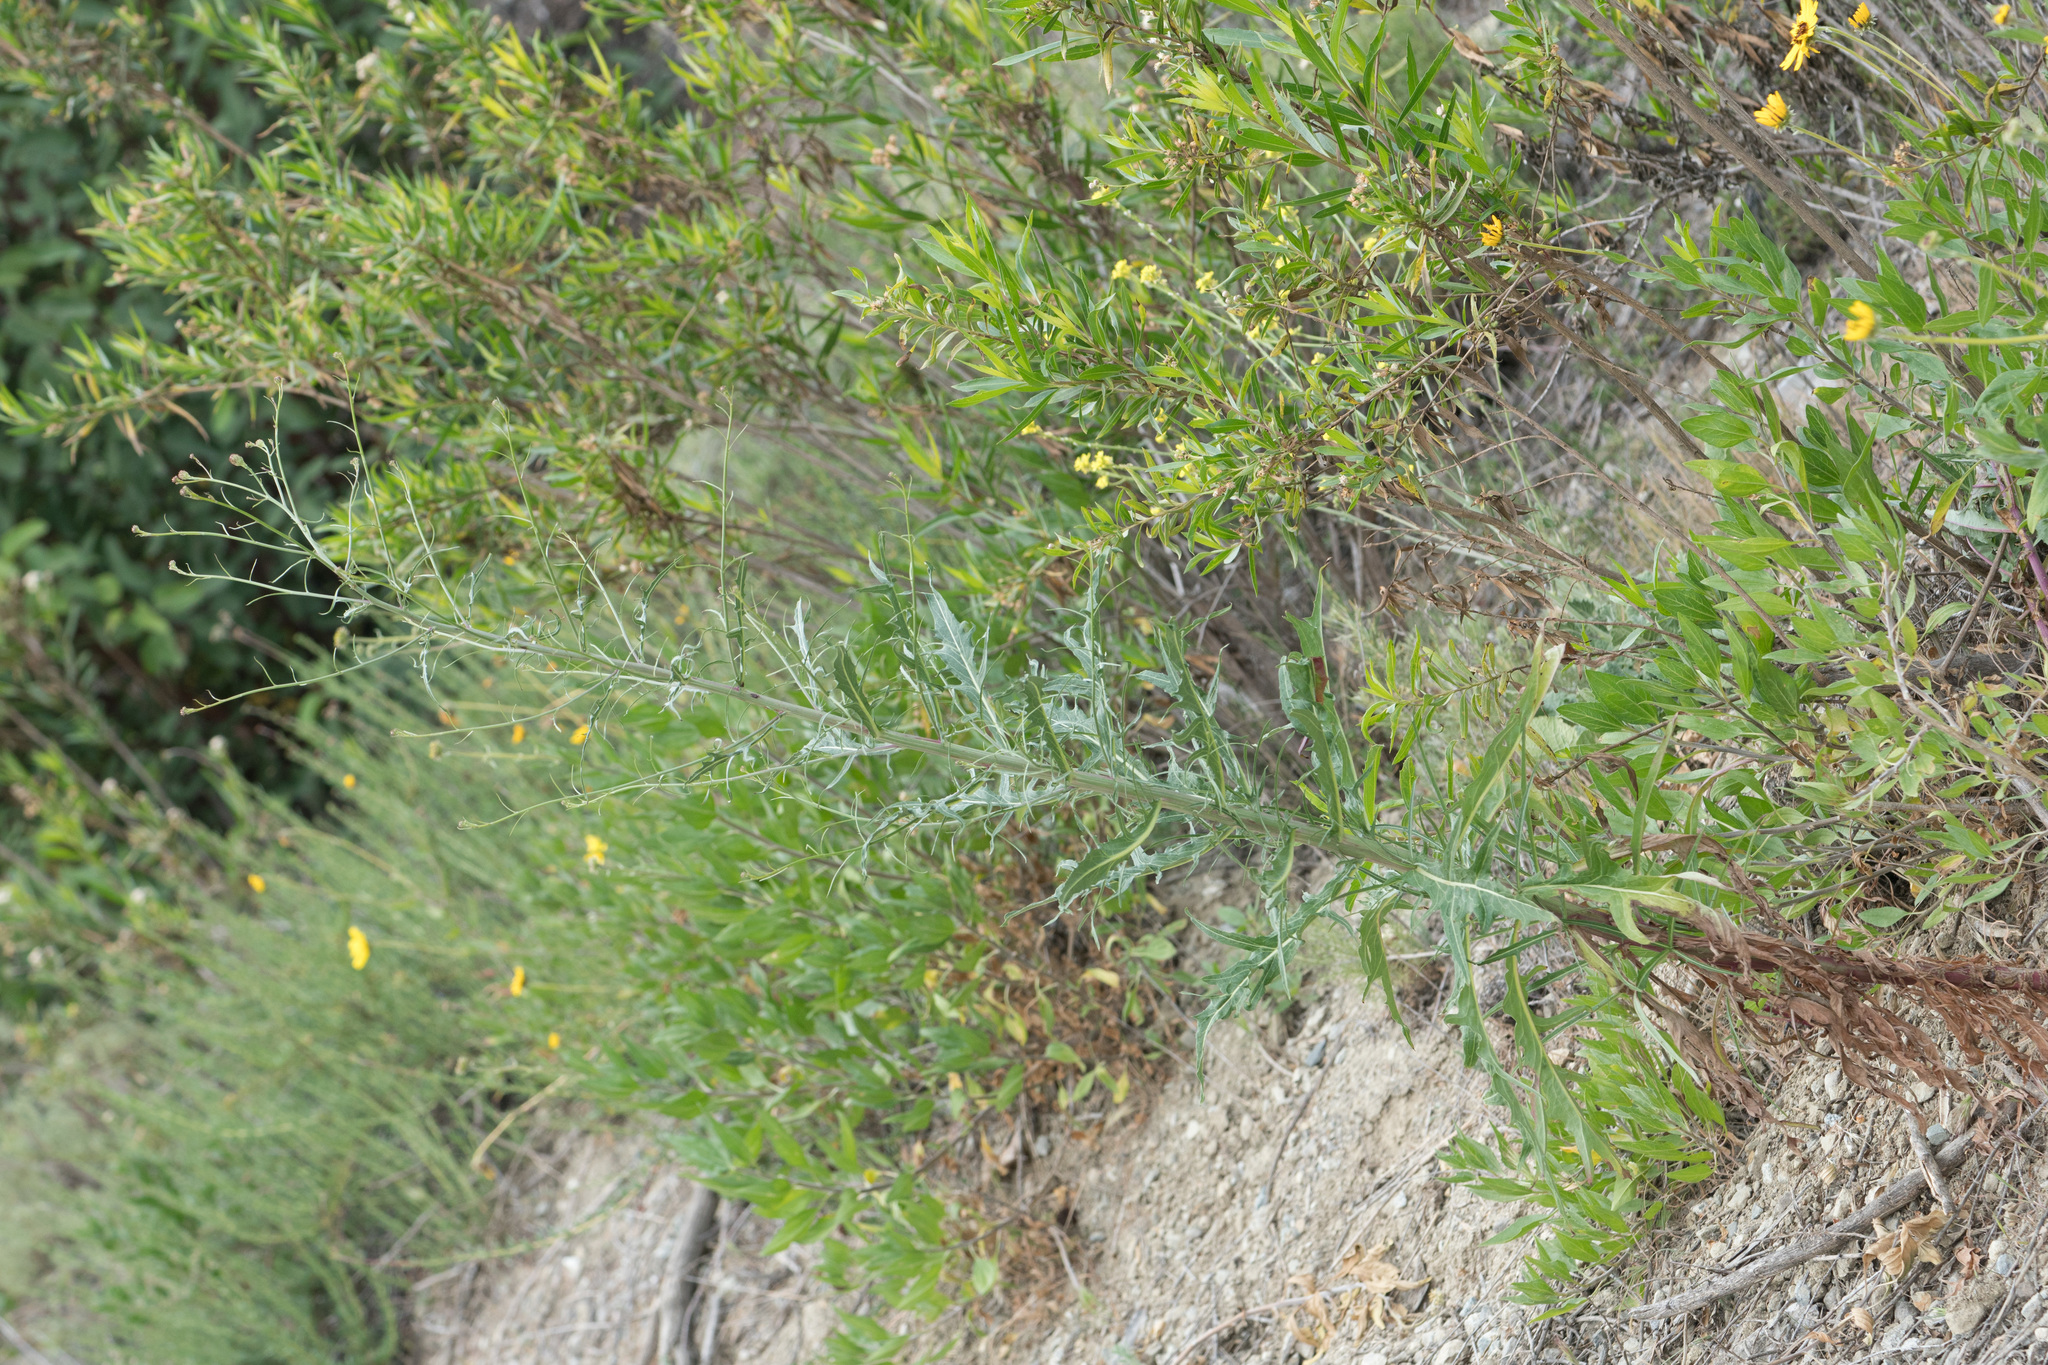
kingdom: Plantae
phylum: Tracheophyta
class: Magnoliopsida
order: Asterales
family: Asteraceae
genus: Malacothrix
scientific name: Malacothrix saxatilis
